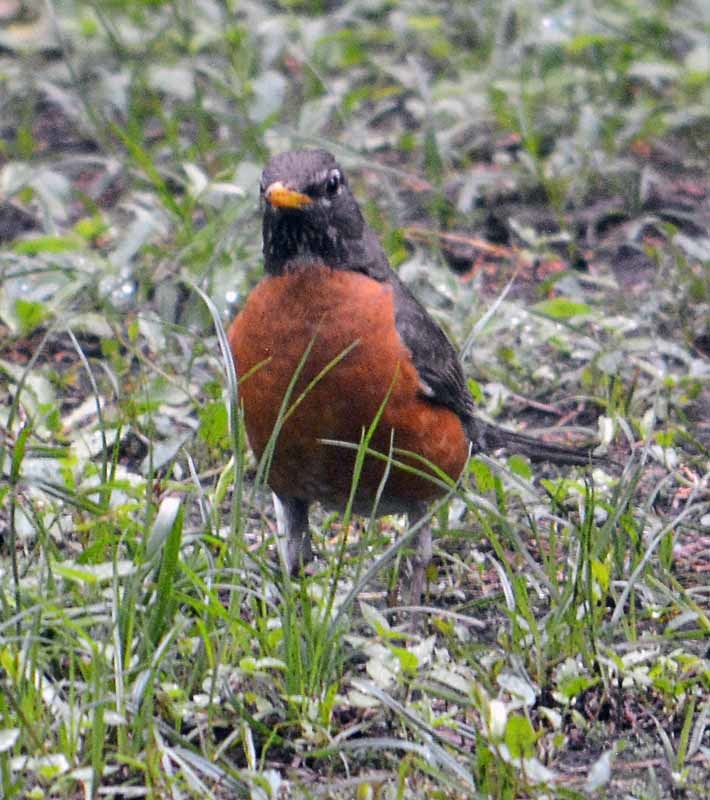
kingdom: Animalia
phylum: Chordata
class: Aves
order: Passeriformes
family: Turdidae
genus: Turdus
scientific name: Turdus migratorius
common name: American robin
